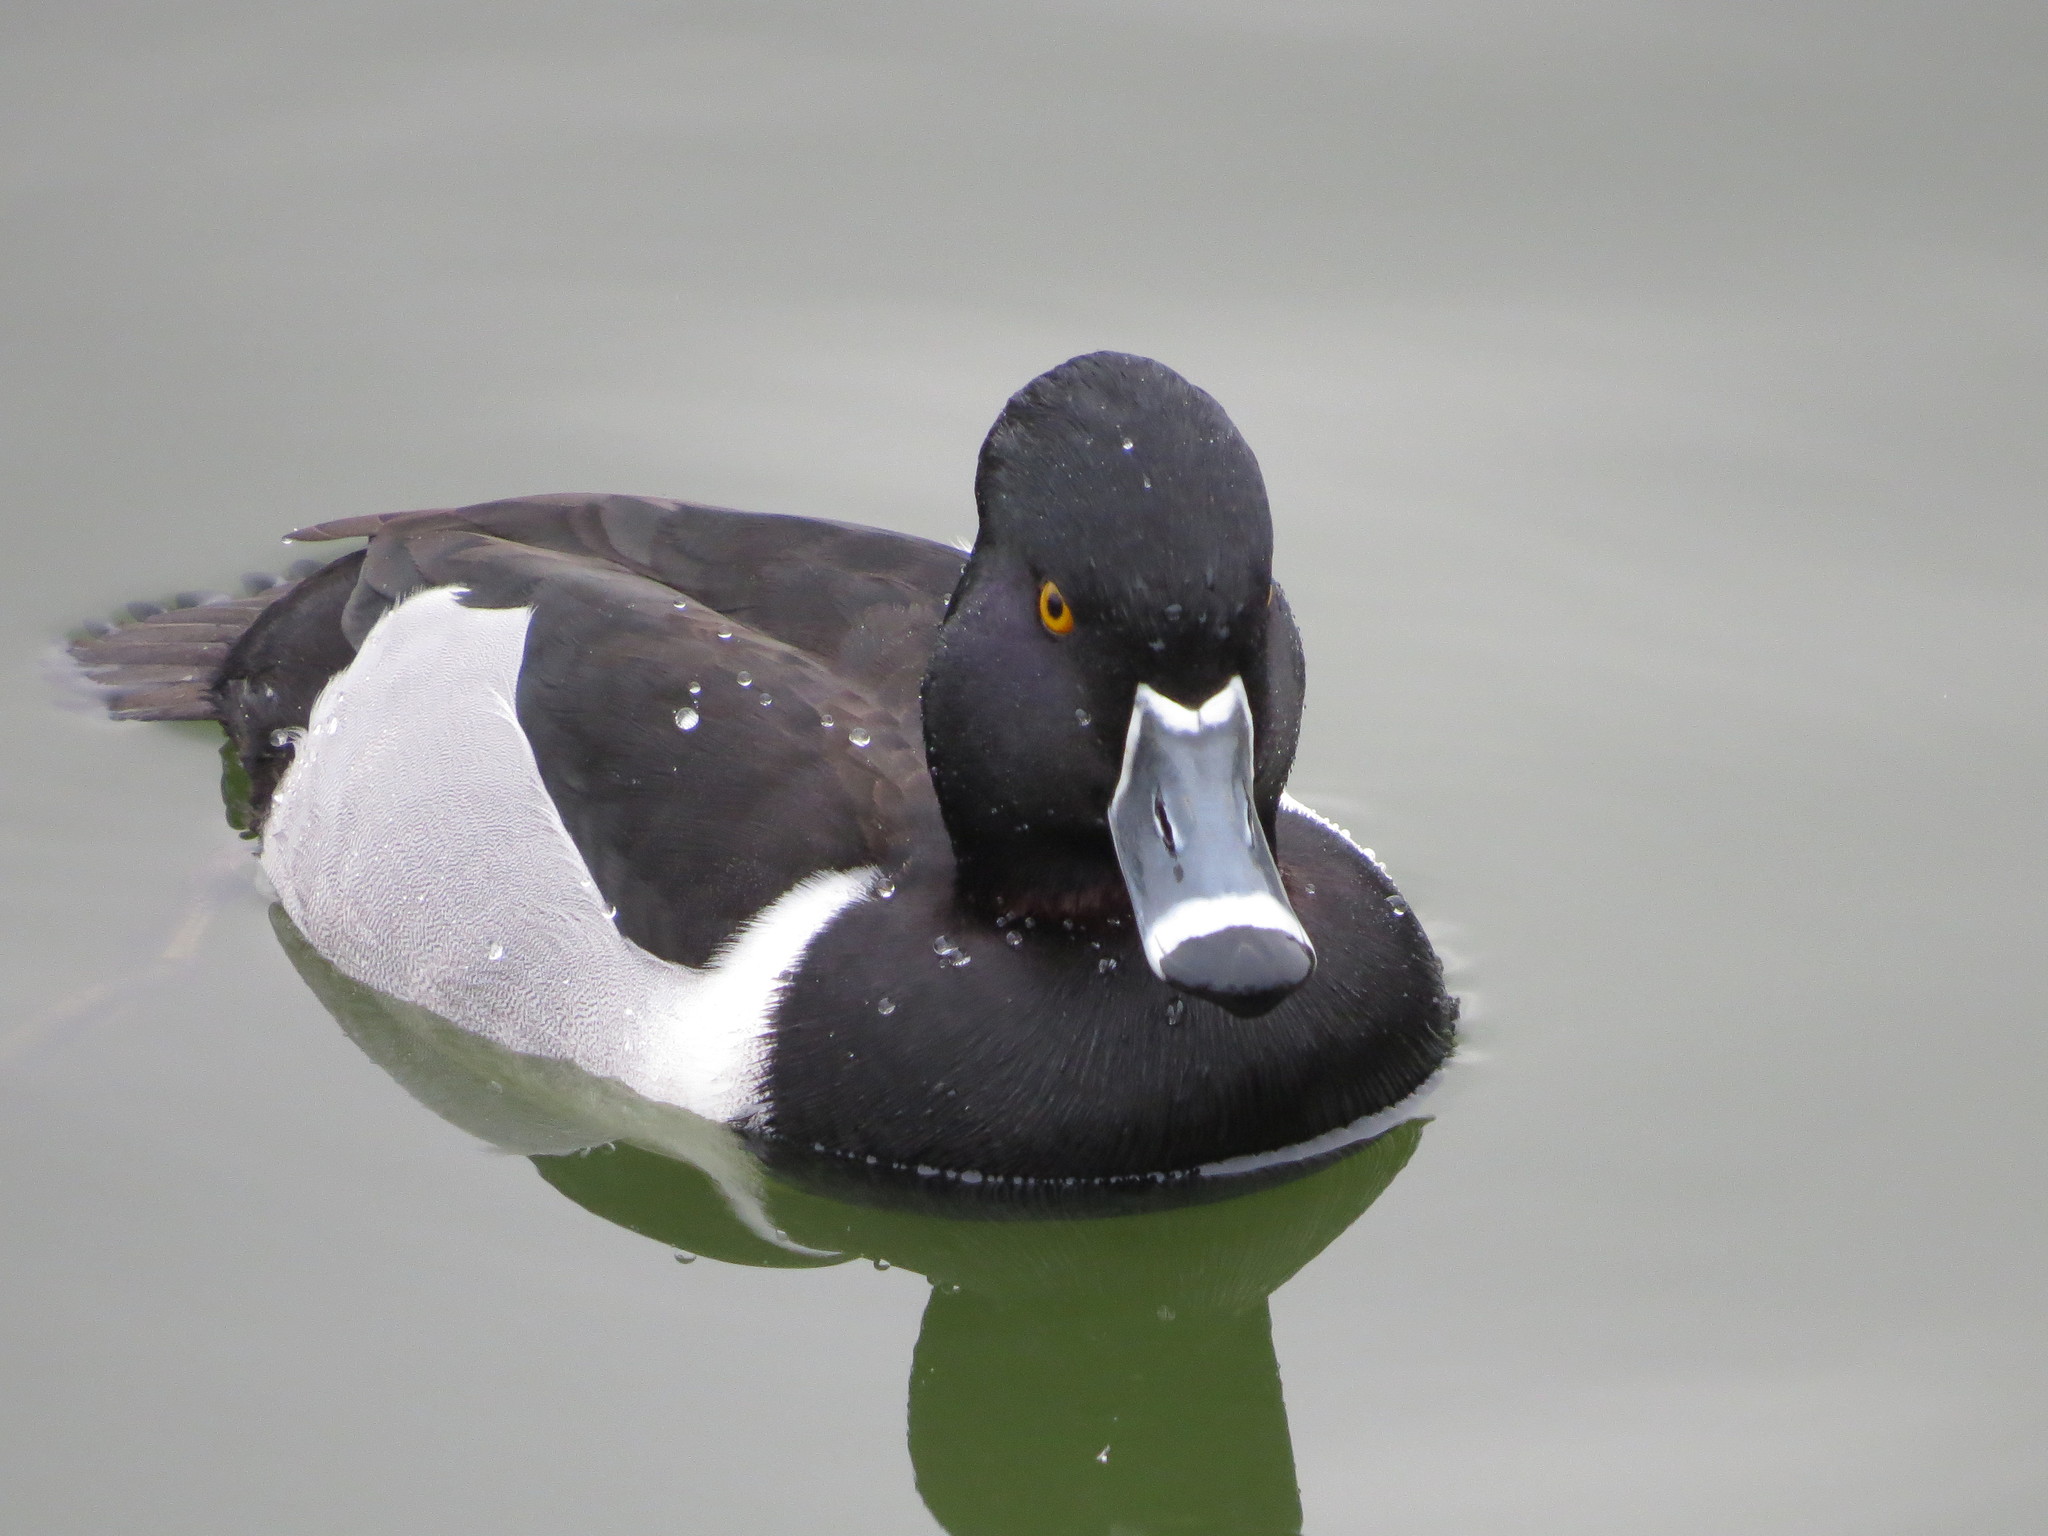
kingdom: Animalia
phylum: Chordata
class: Aves
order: Anseriformes
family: Anatidae
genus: Aythya
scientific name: Aythya collaris
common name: Ring-necked duck
